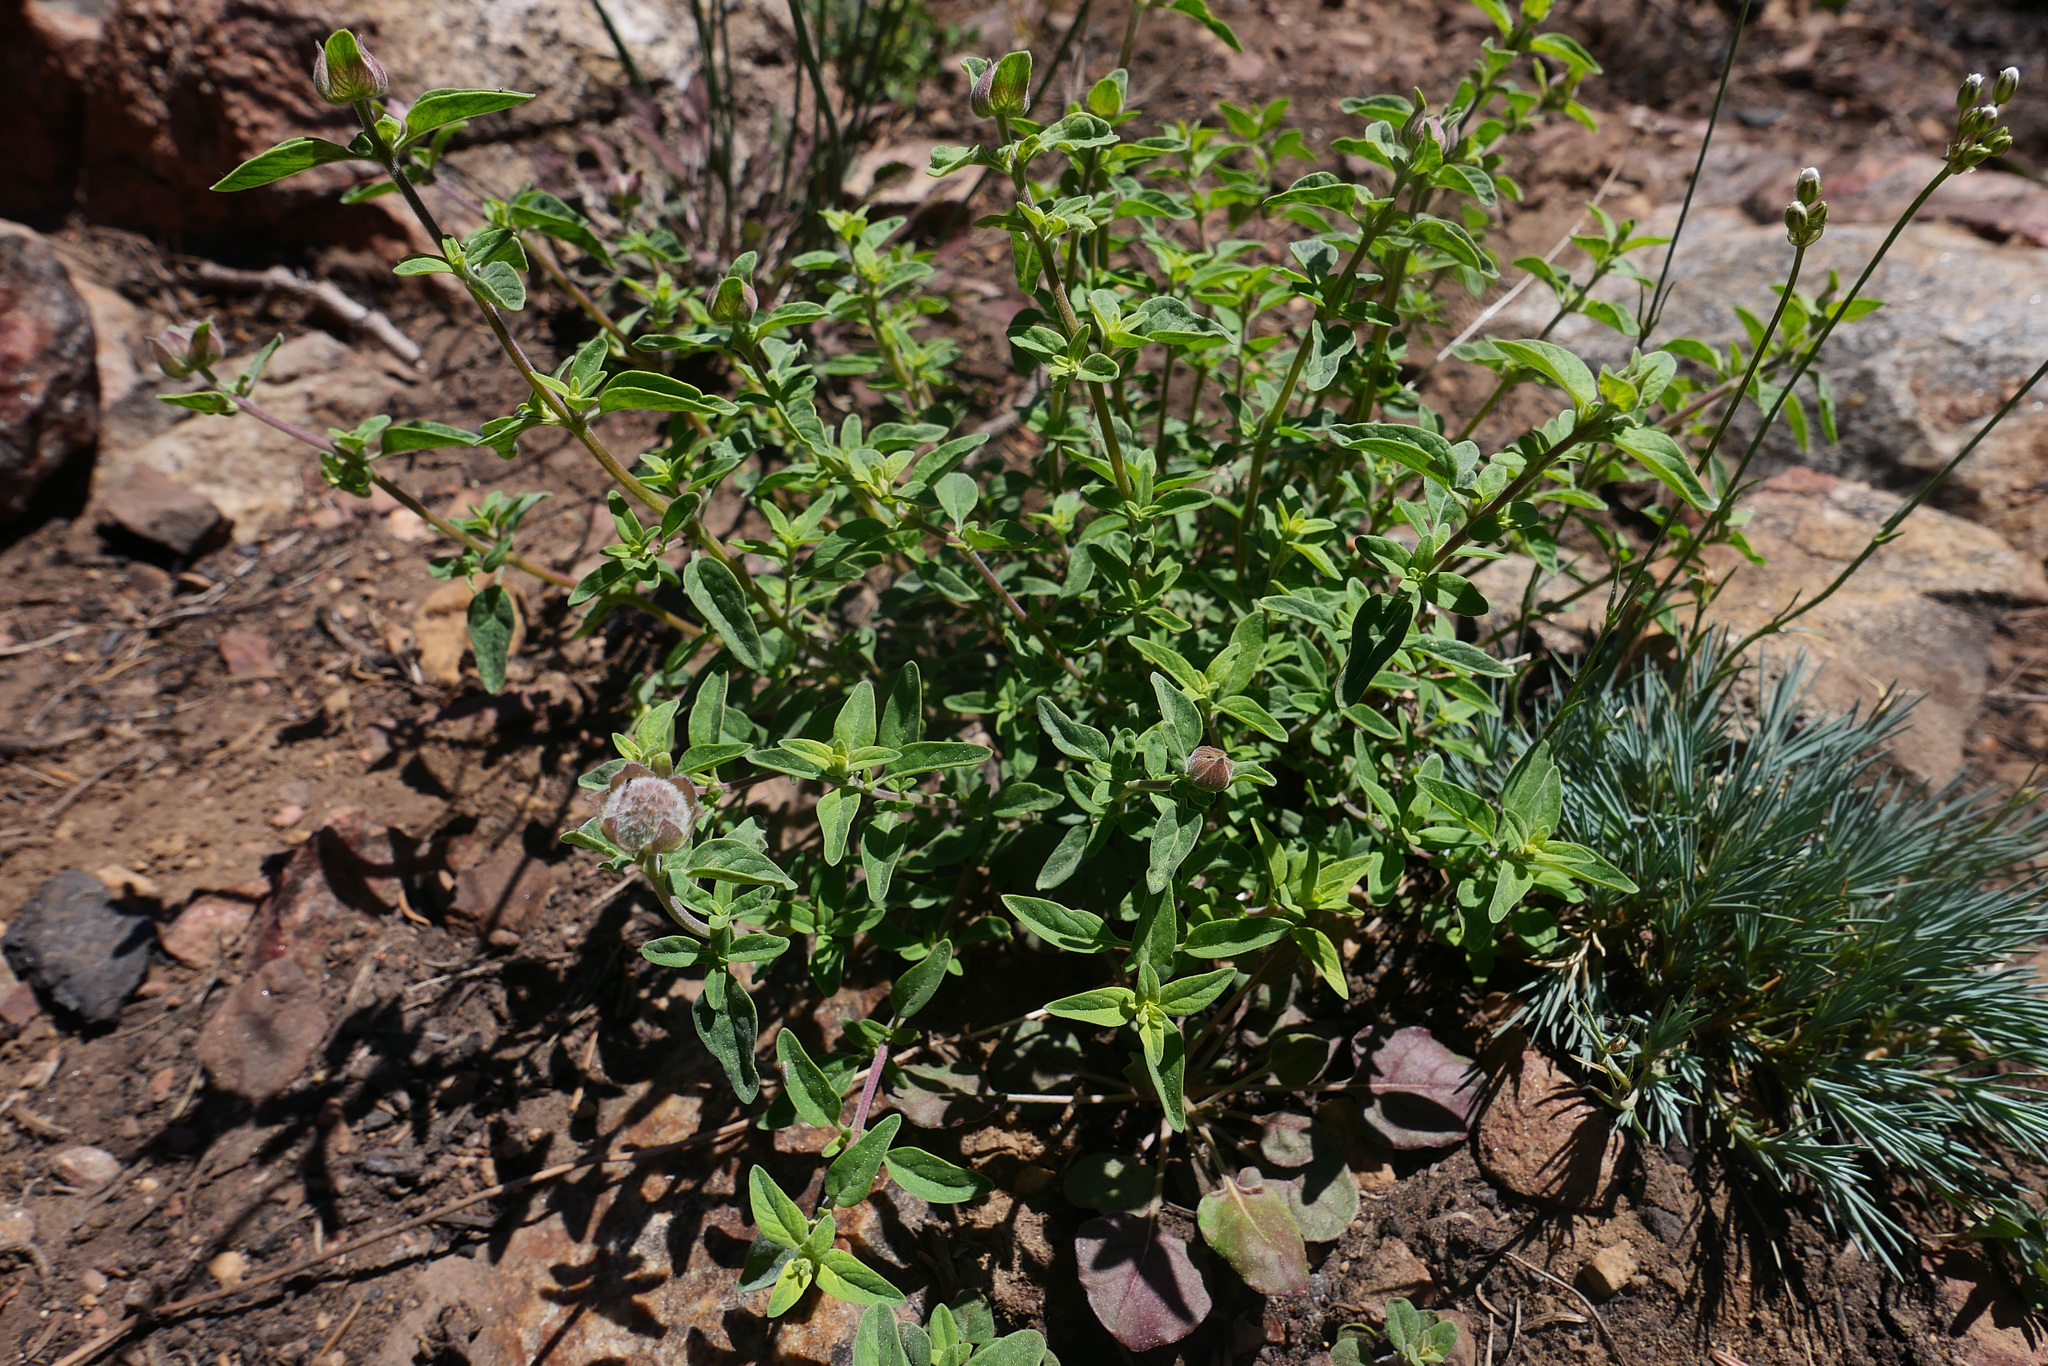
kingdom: Plantae
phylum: Tracheophyta
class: Magnoliopsida
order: Lamiales
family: Lamiaceae
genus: Monardella
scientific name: Monardella odoratissima
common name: Pacific monardella
